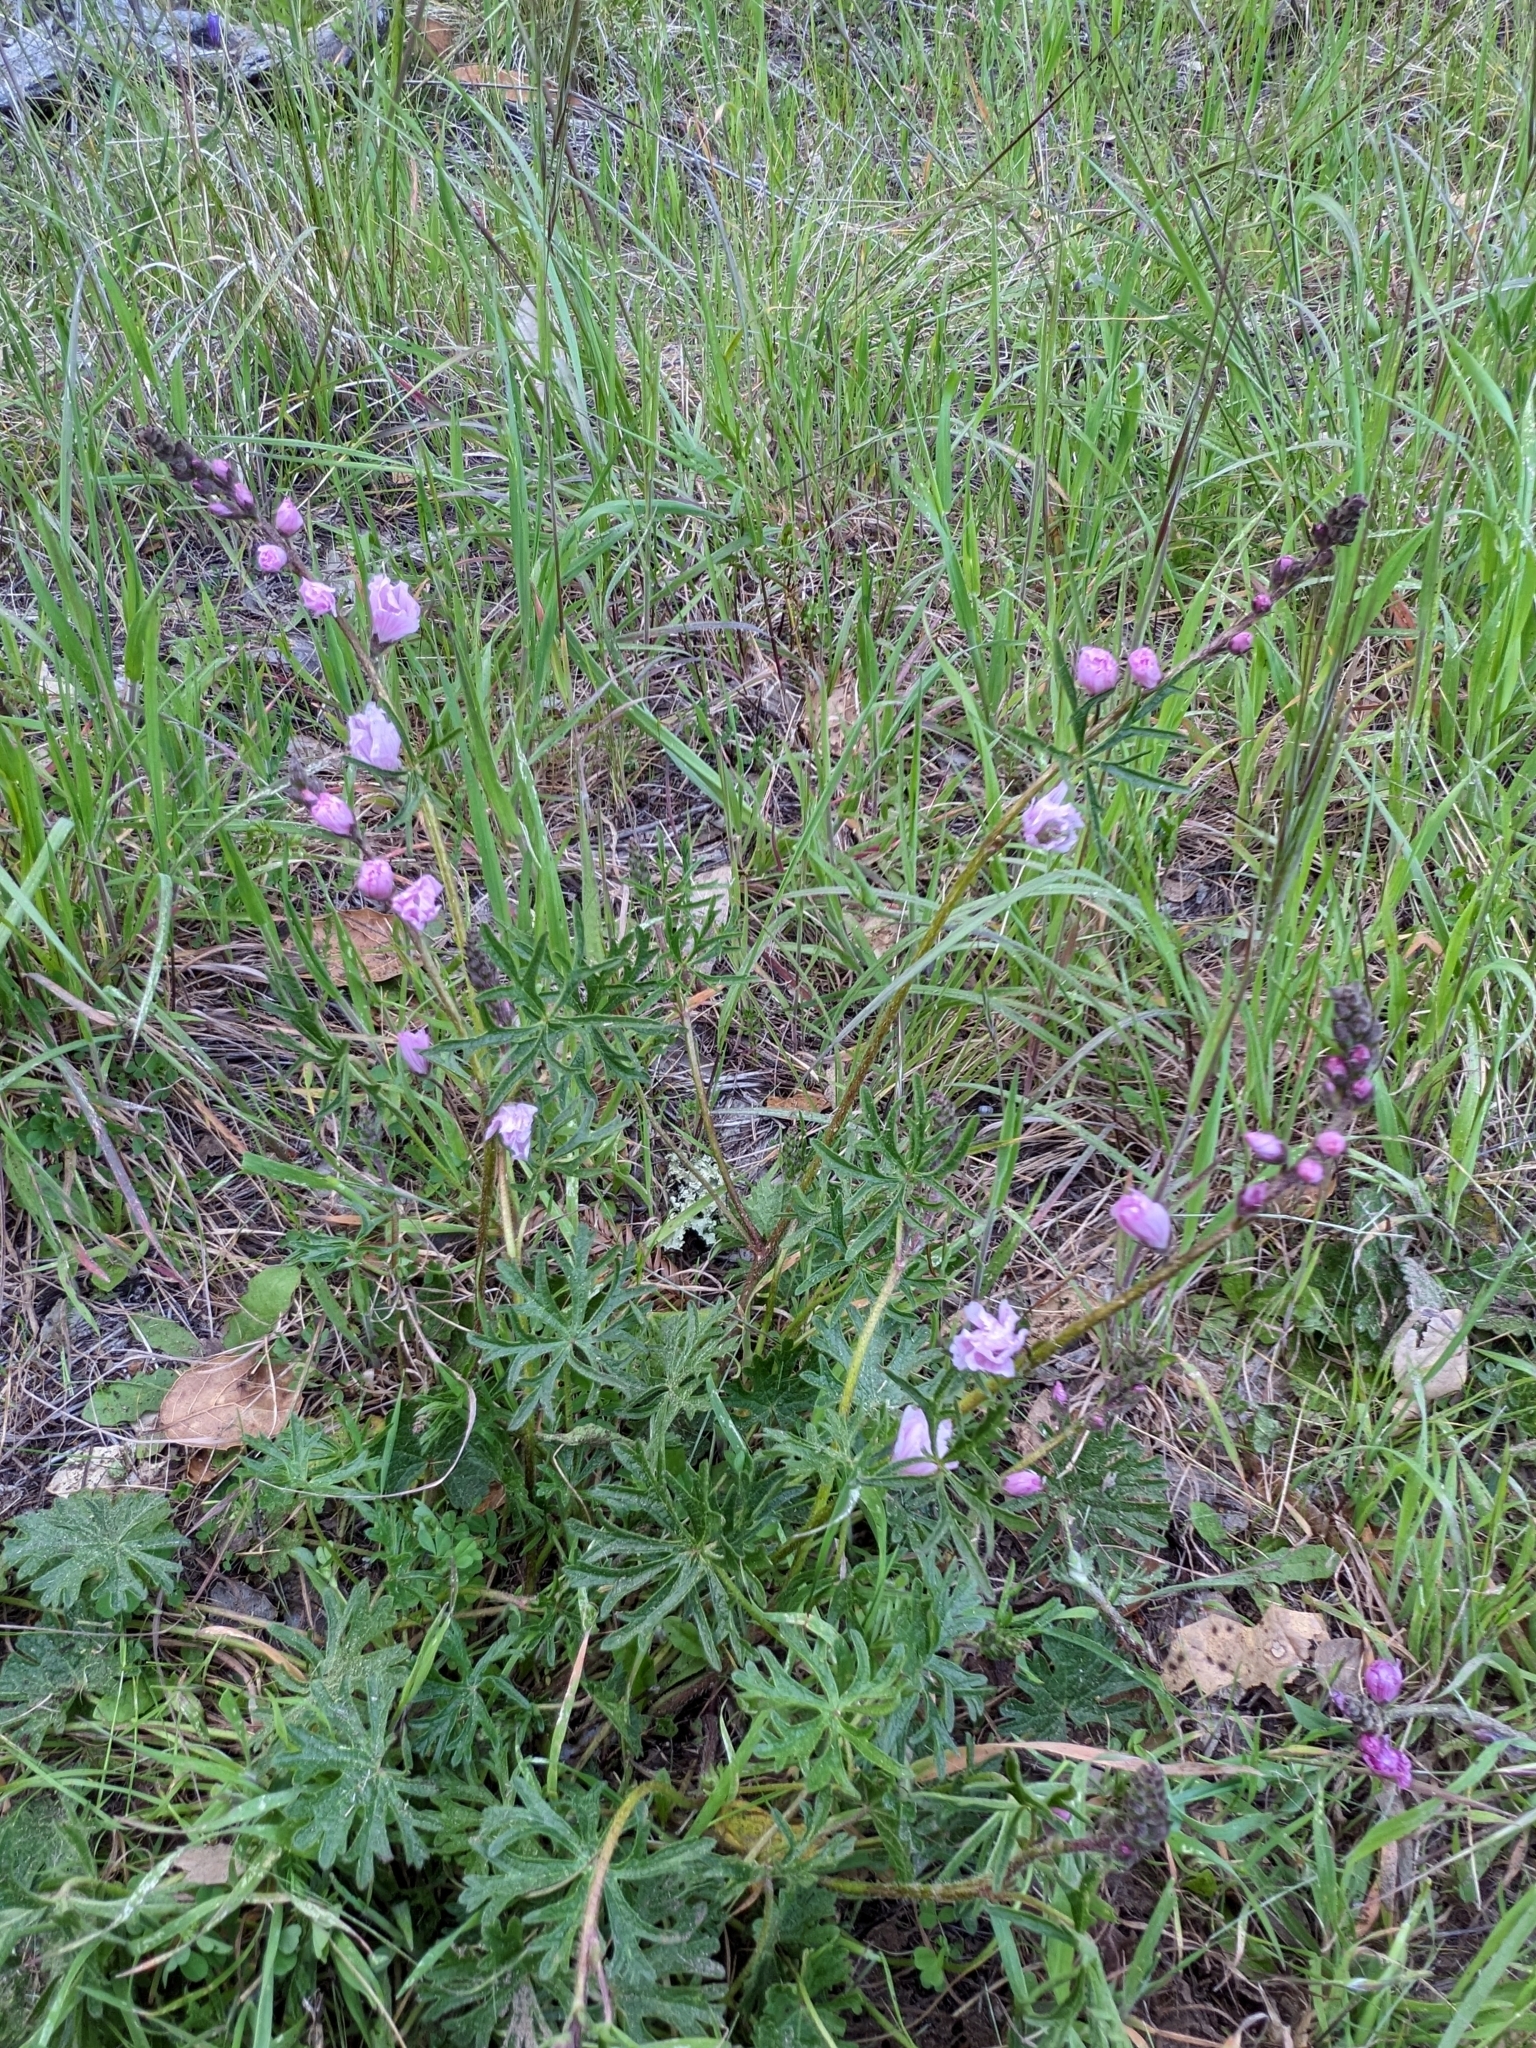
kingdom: Plantae
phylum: Tracheophyta
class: Magnoliopsida
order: Malvales
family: Malvaceae
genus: Sidalcea
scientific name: Sidalcea malviflora
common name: Greek mallow
